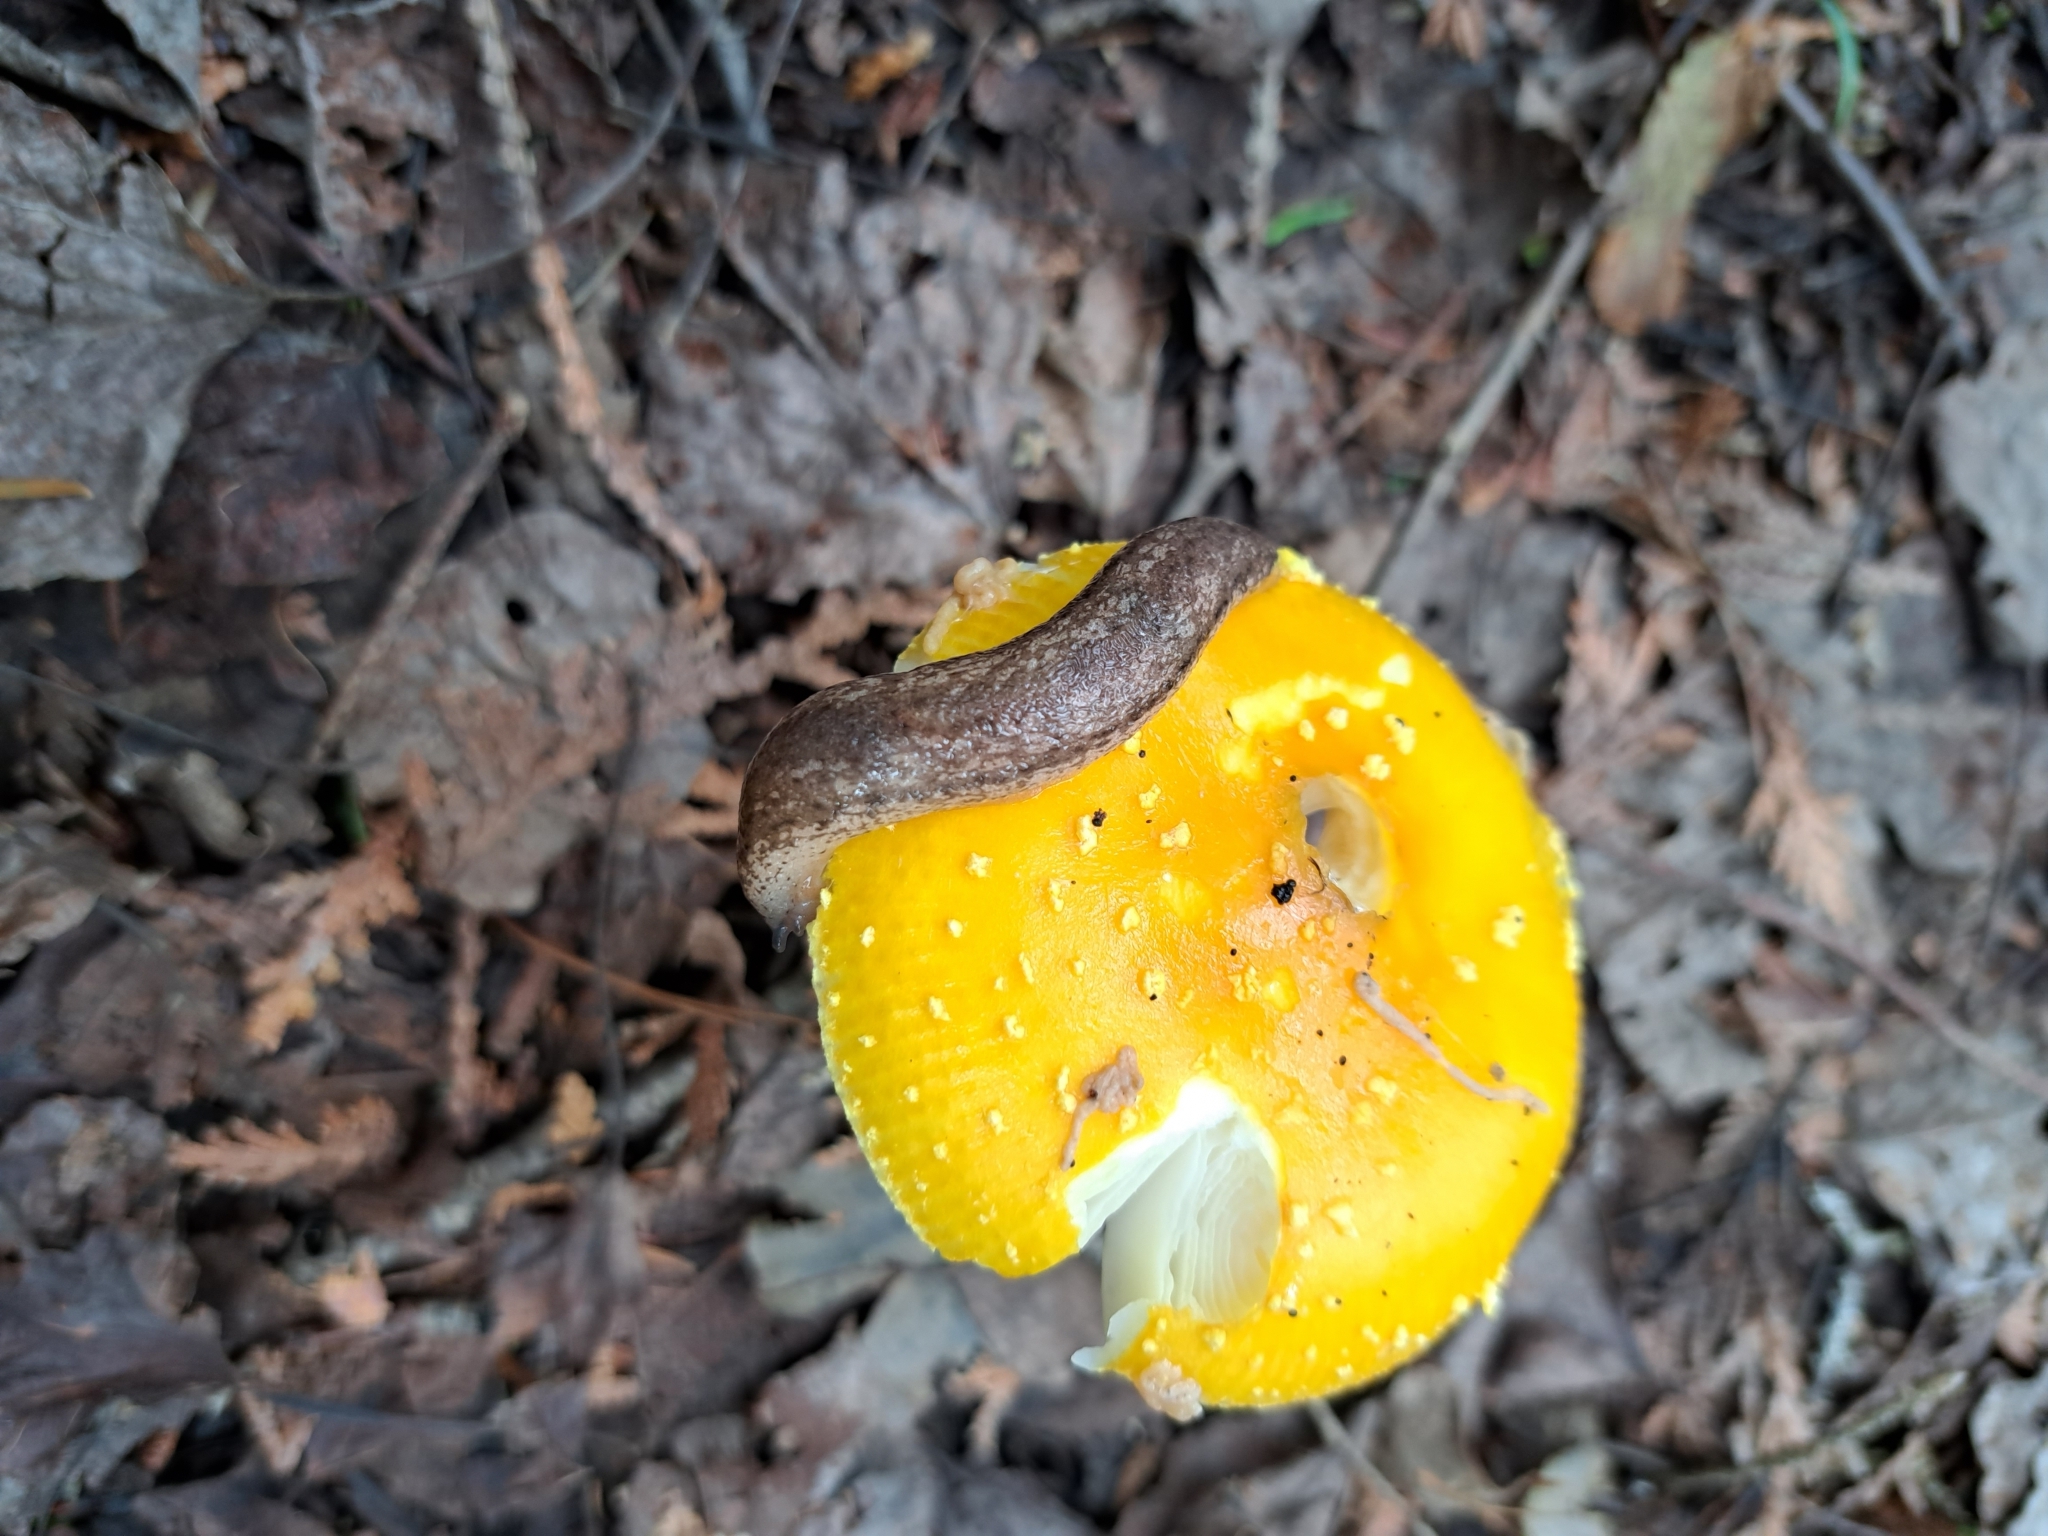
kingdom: Animalia
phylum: Mollusca
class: Gastropoda
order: Stylommatophora
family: Philomycidae
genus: Philomycus
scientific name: Philomycus togatus
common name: Toga mantleslug
